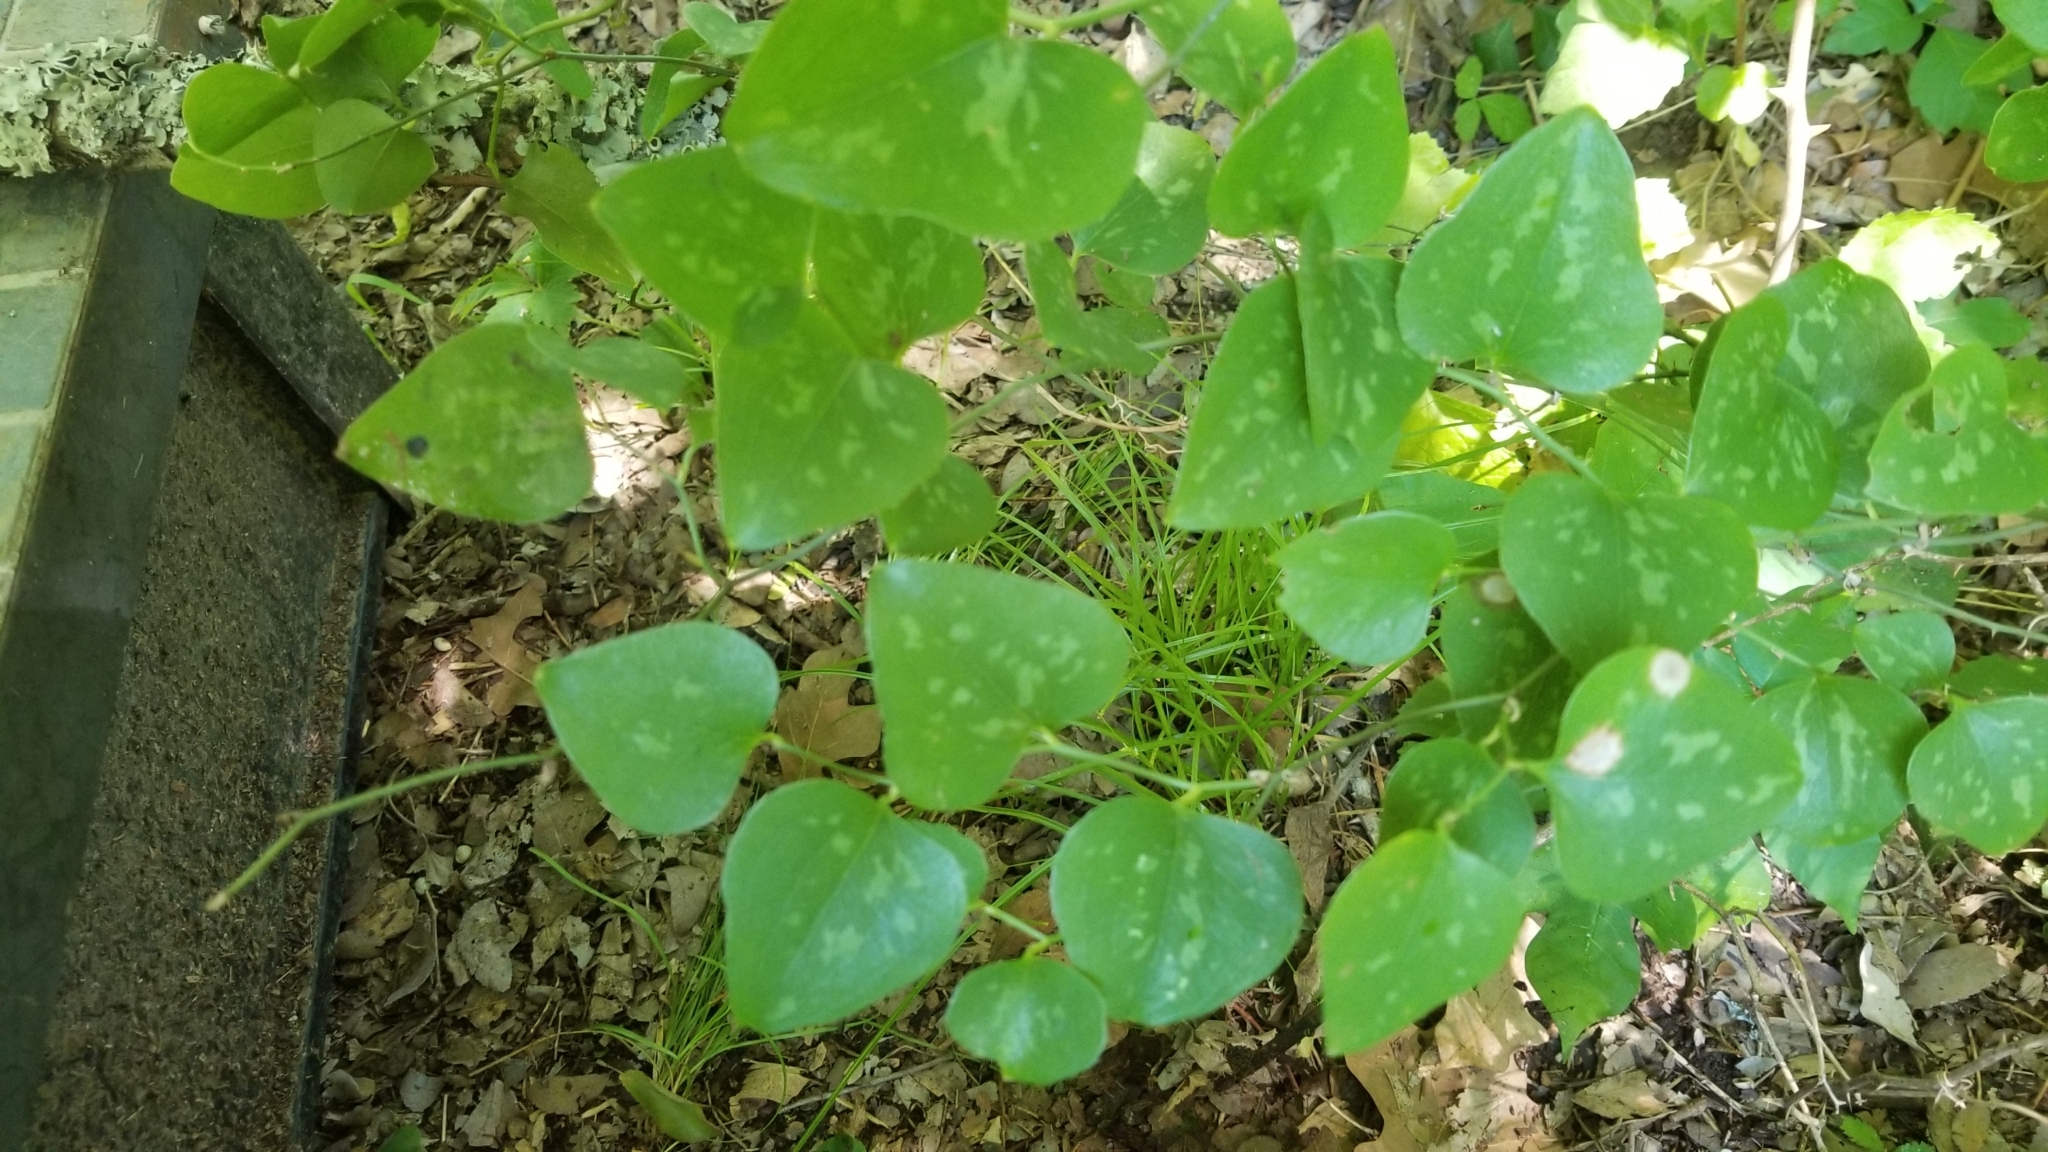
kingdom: Plantae
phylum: Tracheophyta
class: Liliopsida
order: Liliales
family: Smilacaceae
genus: Smilax
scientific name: Smilax bona-nox
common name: Catbrier
